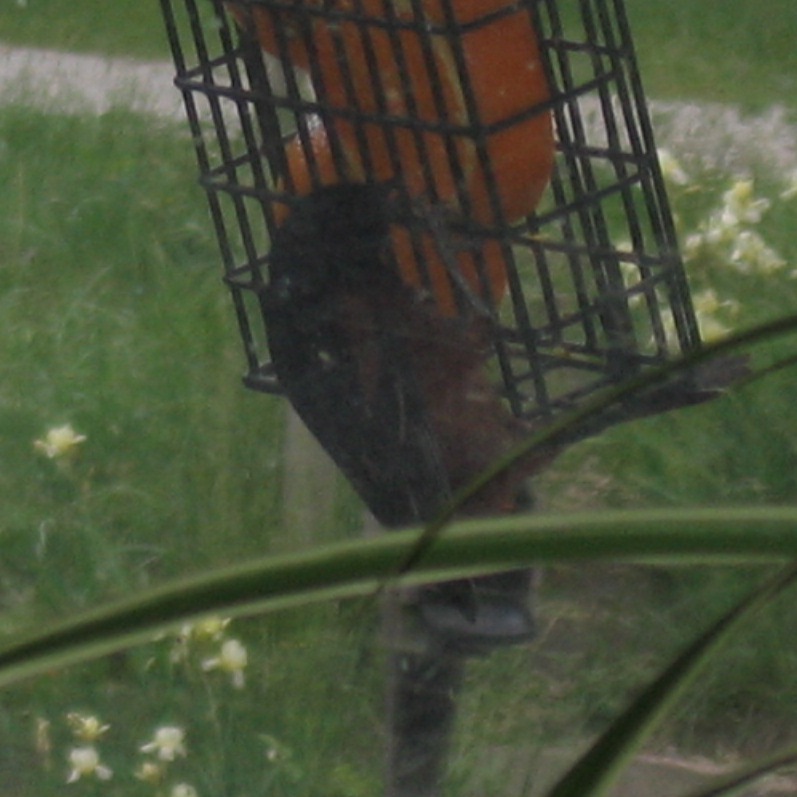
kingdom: Animalia
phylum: Chordata
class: Aves
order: Passeriformes
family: Icteridae
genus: Icterus
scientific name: Icterus spurius
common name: Orchard oriole
